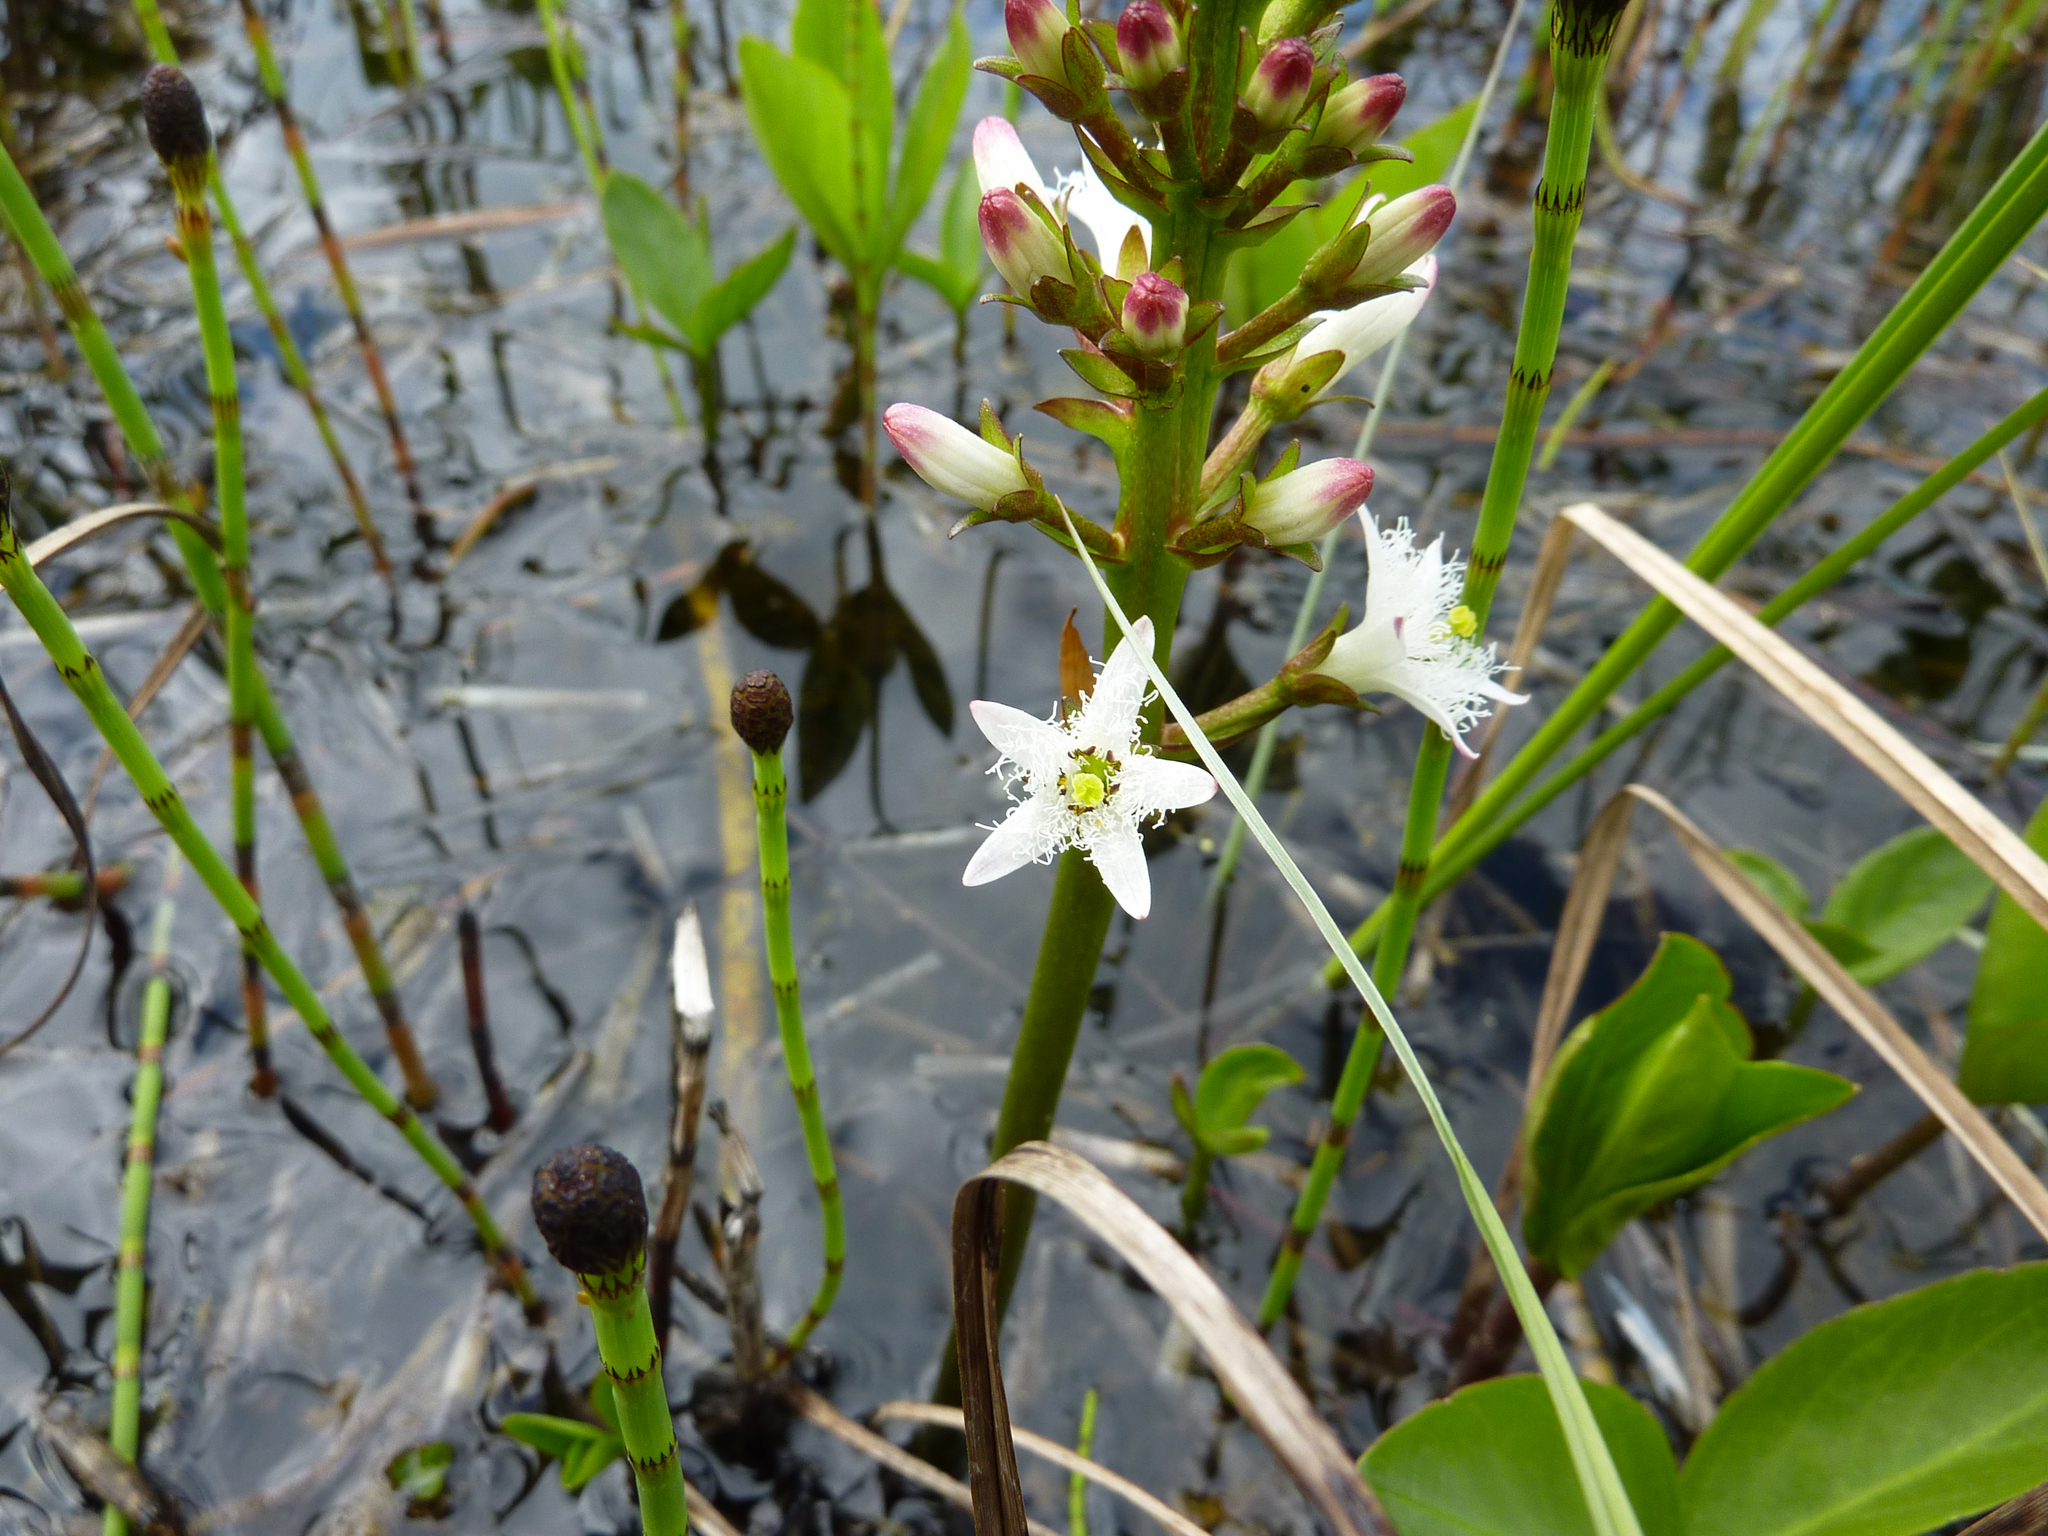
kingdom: Plantae
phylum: Tracheophyta
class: Magnoliopsida
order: Asterales
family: Menyanthaceae
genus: Menyanthes
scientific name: Menyanthes trifoliata
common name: Bogbean
